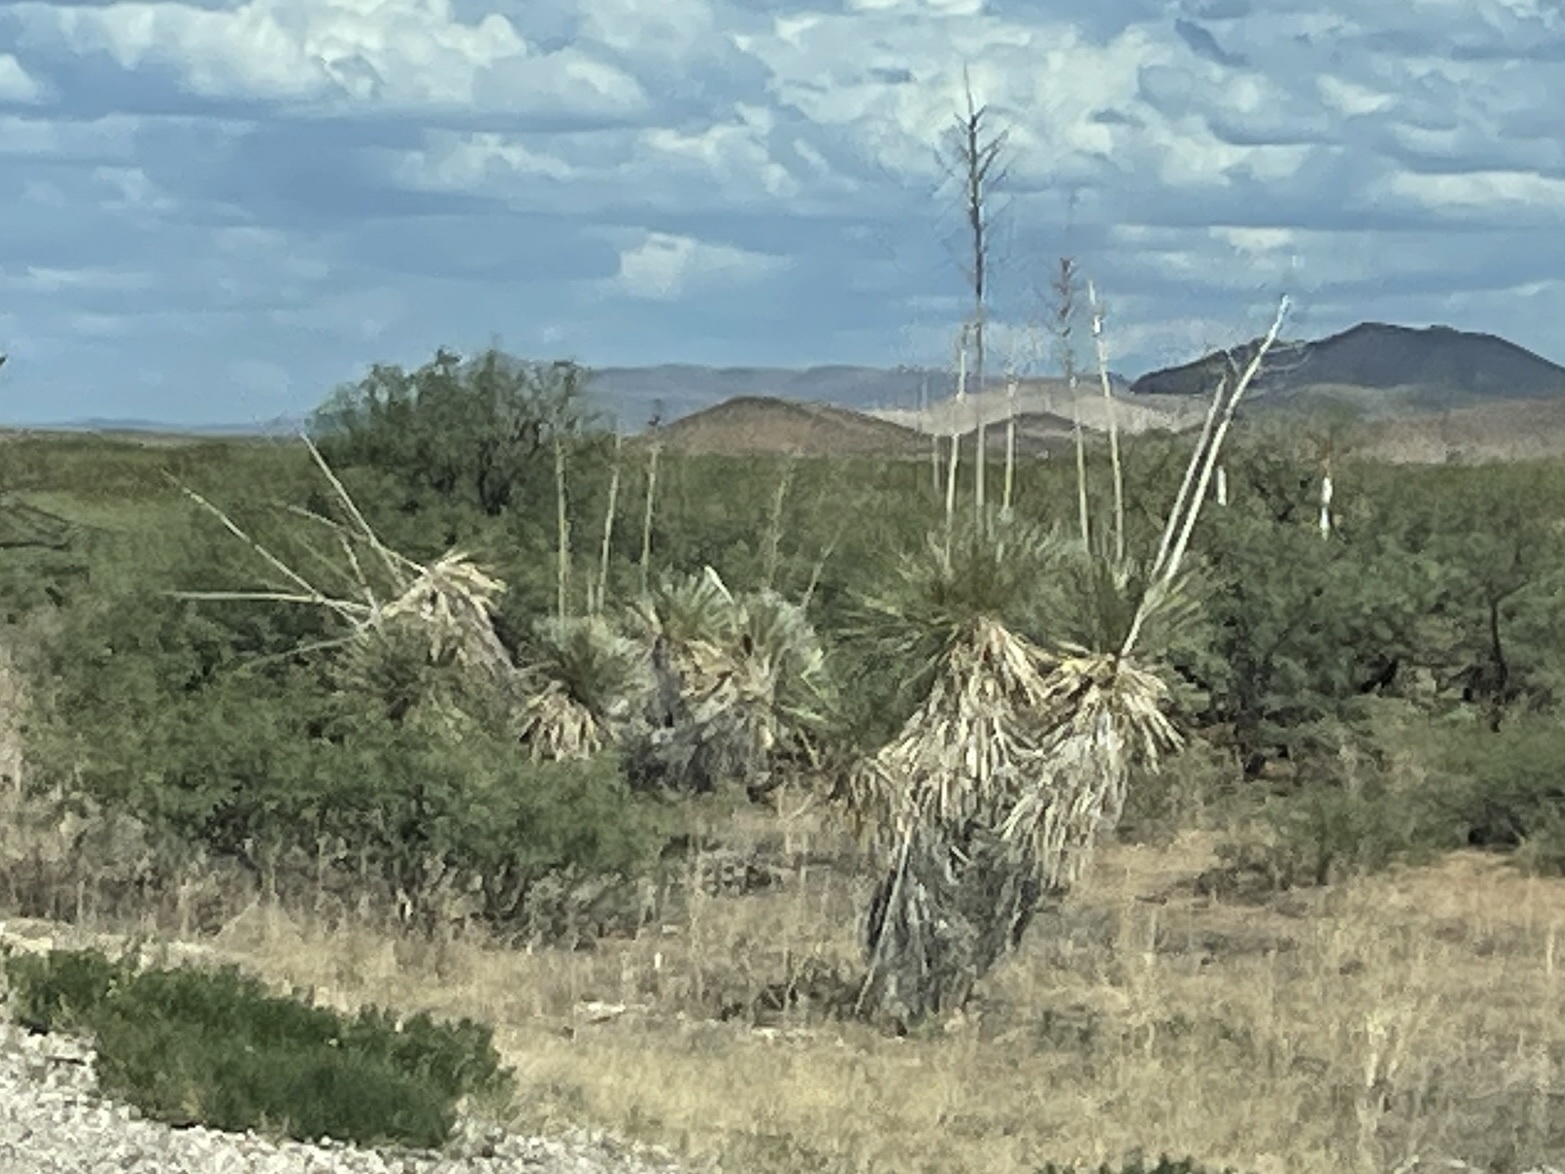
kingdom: Plantae
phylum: Tracheophyta
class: Liliopsida
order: Asparagales
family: Asparagaceae
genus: Yucca
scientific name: Yucca elata
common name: Palmella
